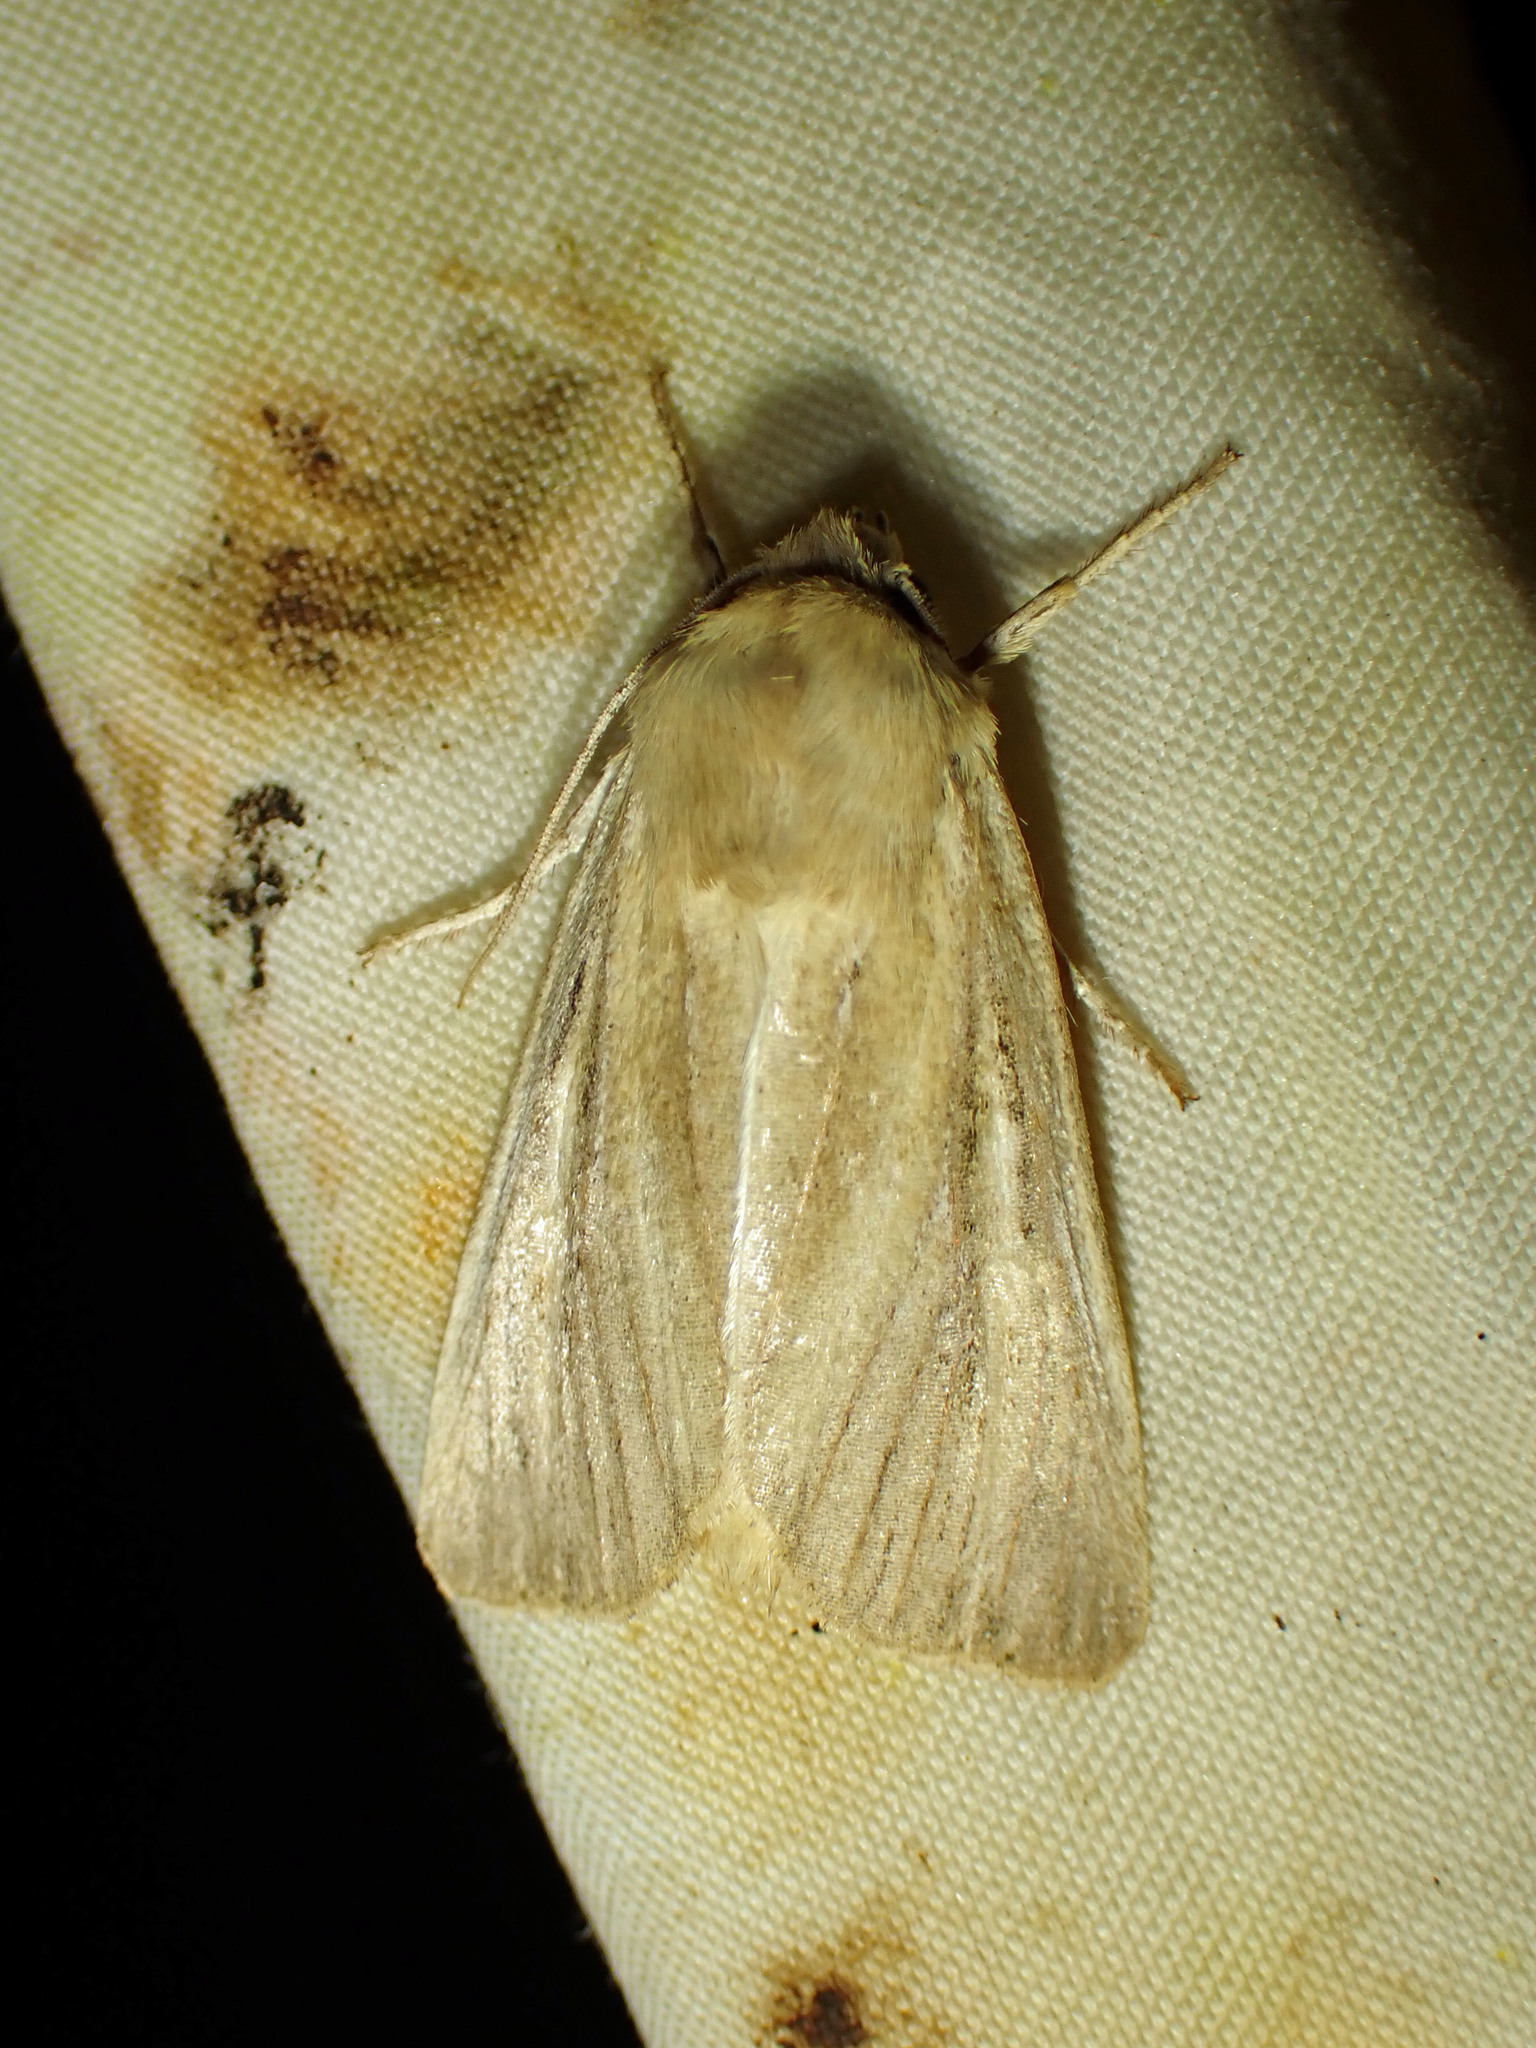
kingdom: Animalia
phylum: Arthropoda
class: Insecta
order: Lepidoptera
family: Noctuidae
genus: Apamea
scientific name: Apamea lintneri
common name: Sand wainscot
